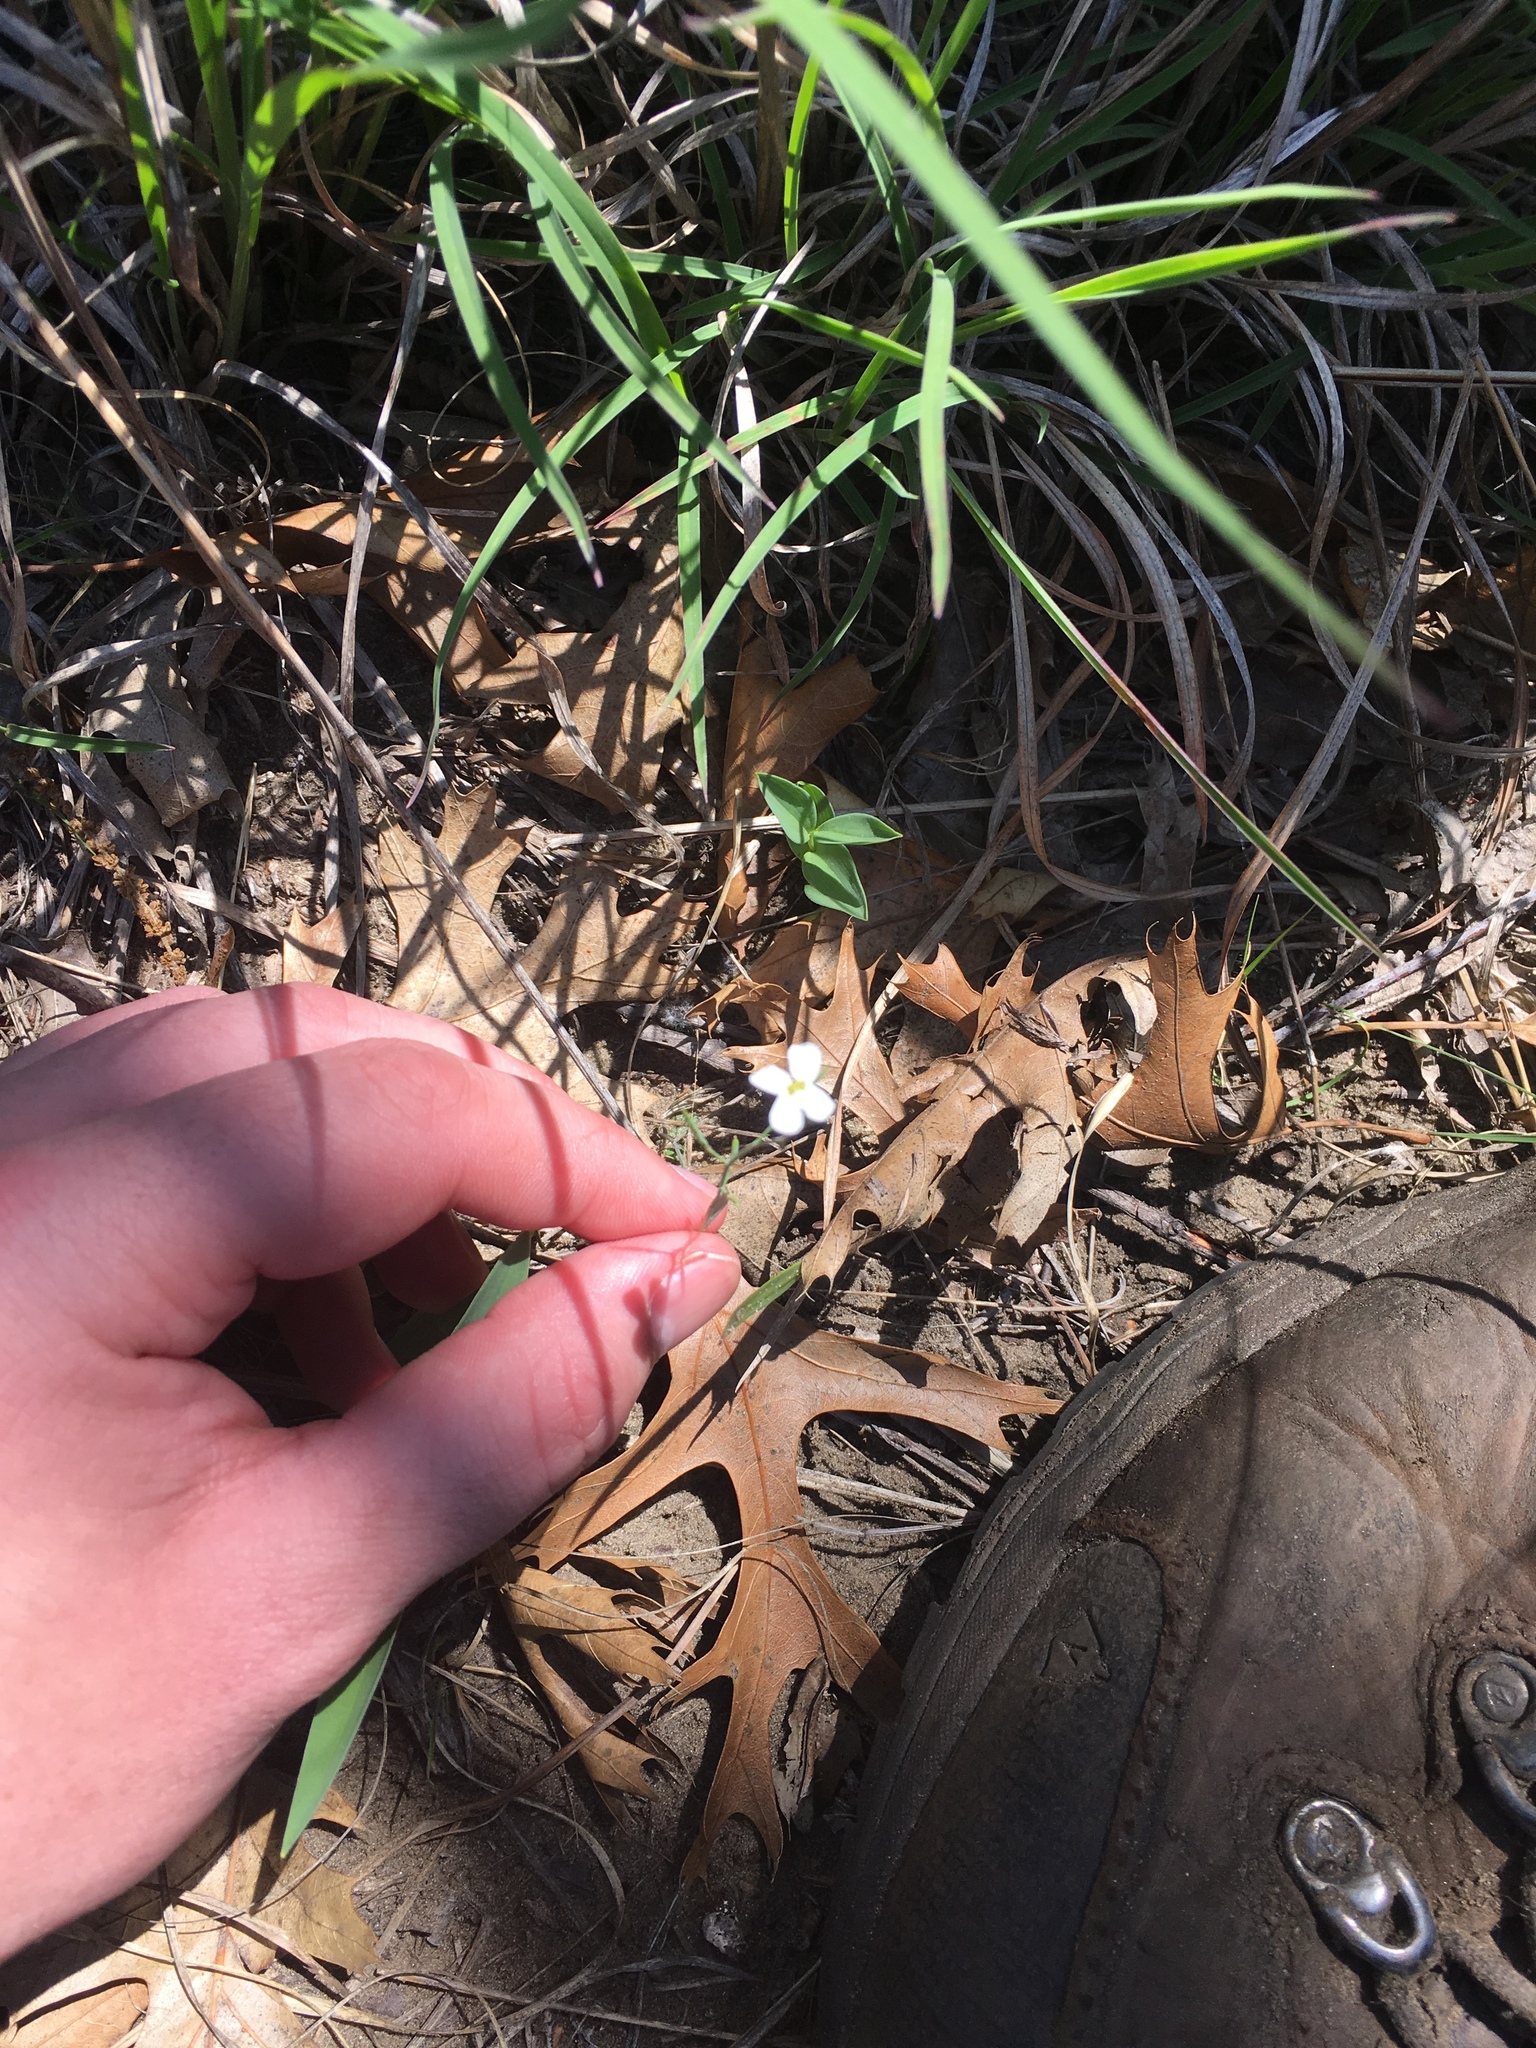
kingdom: Plantae
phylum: Tracheophyta
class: Magnoliopsida
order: Brassicales
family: Brassicaceae
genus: Arabidopsis
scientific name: Arabidopsis lyrata
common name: Lyrate rockcress
